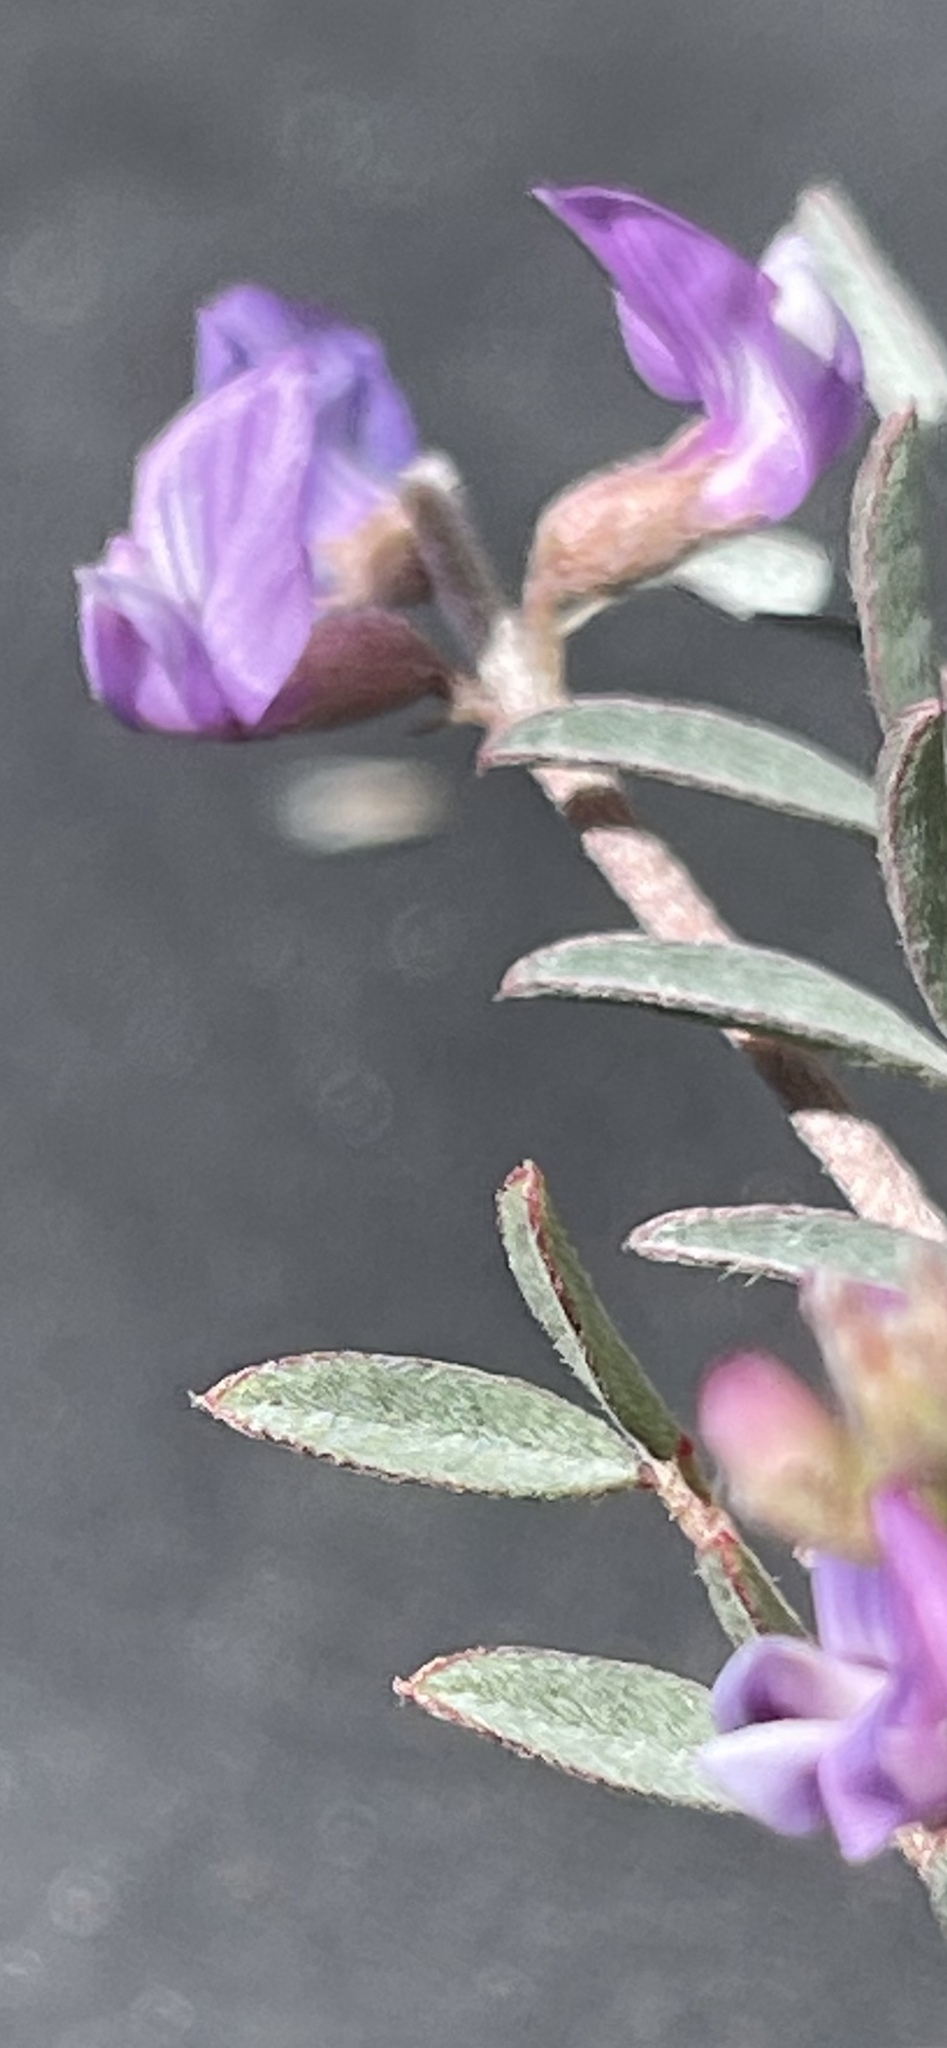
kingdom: Plantae
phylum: Tracheophyta
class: Magnoliopsida
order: Fabales
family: Fabaceae
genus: Astragalus
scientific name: Astragalus palmeri
